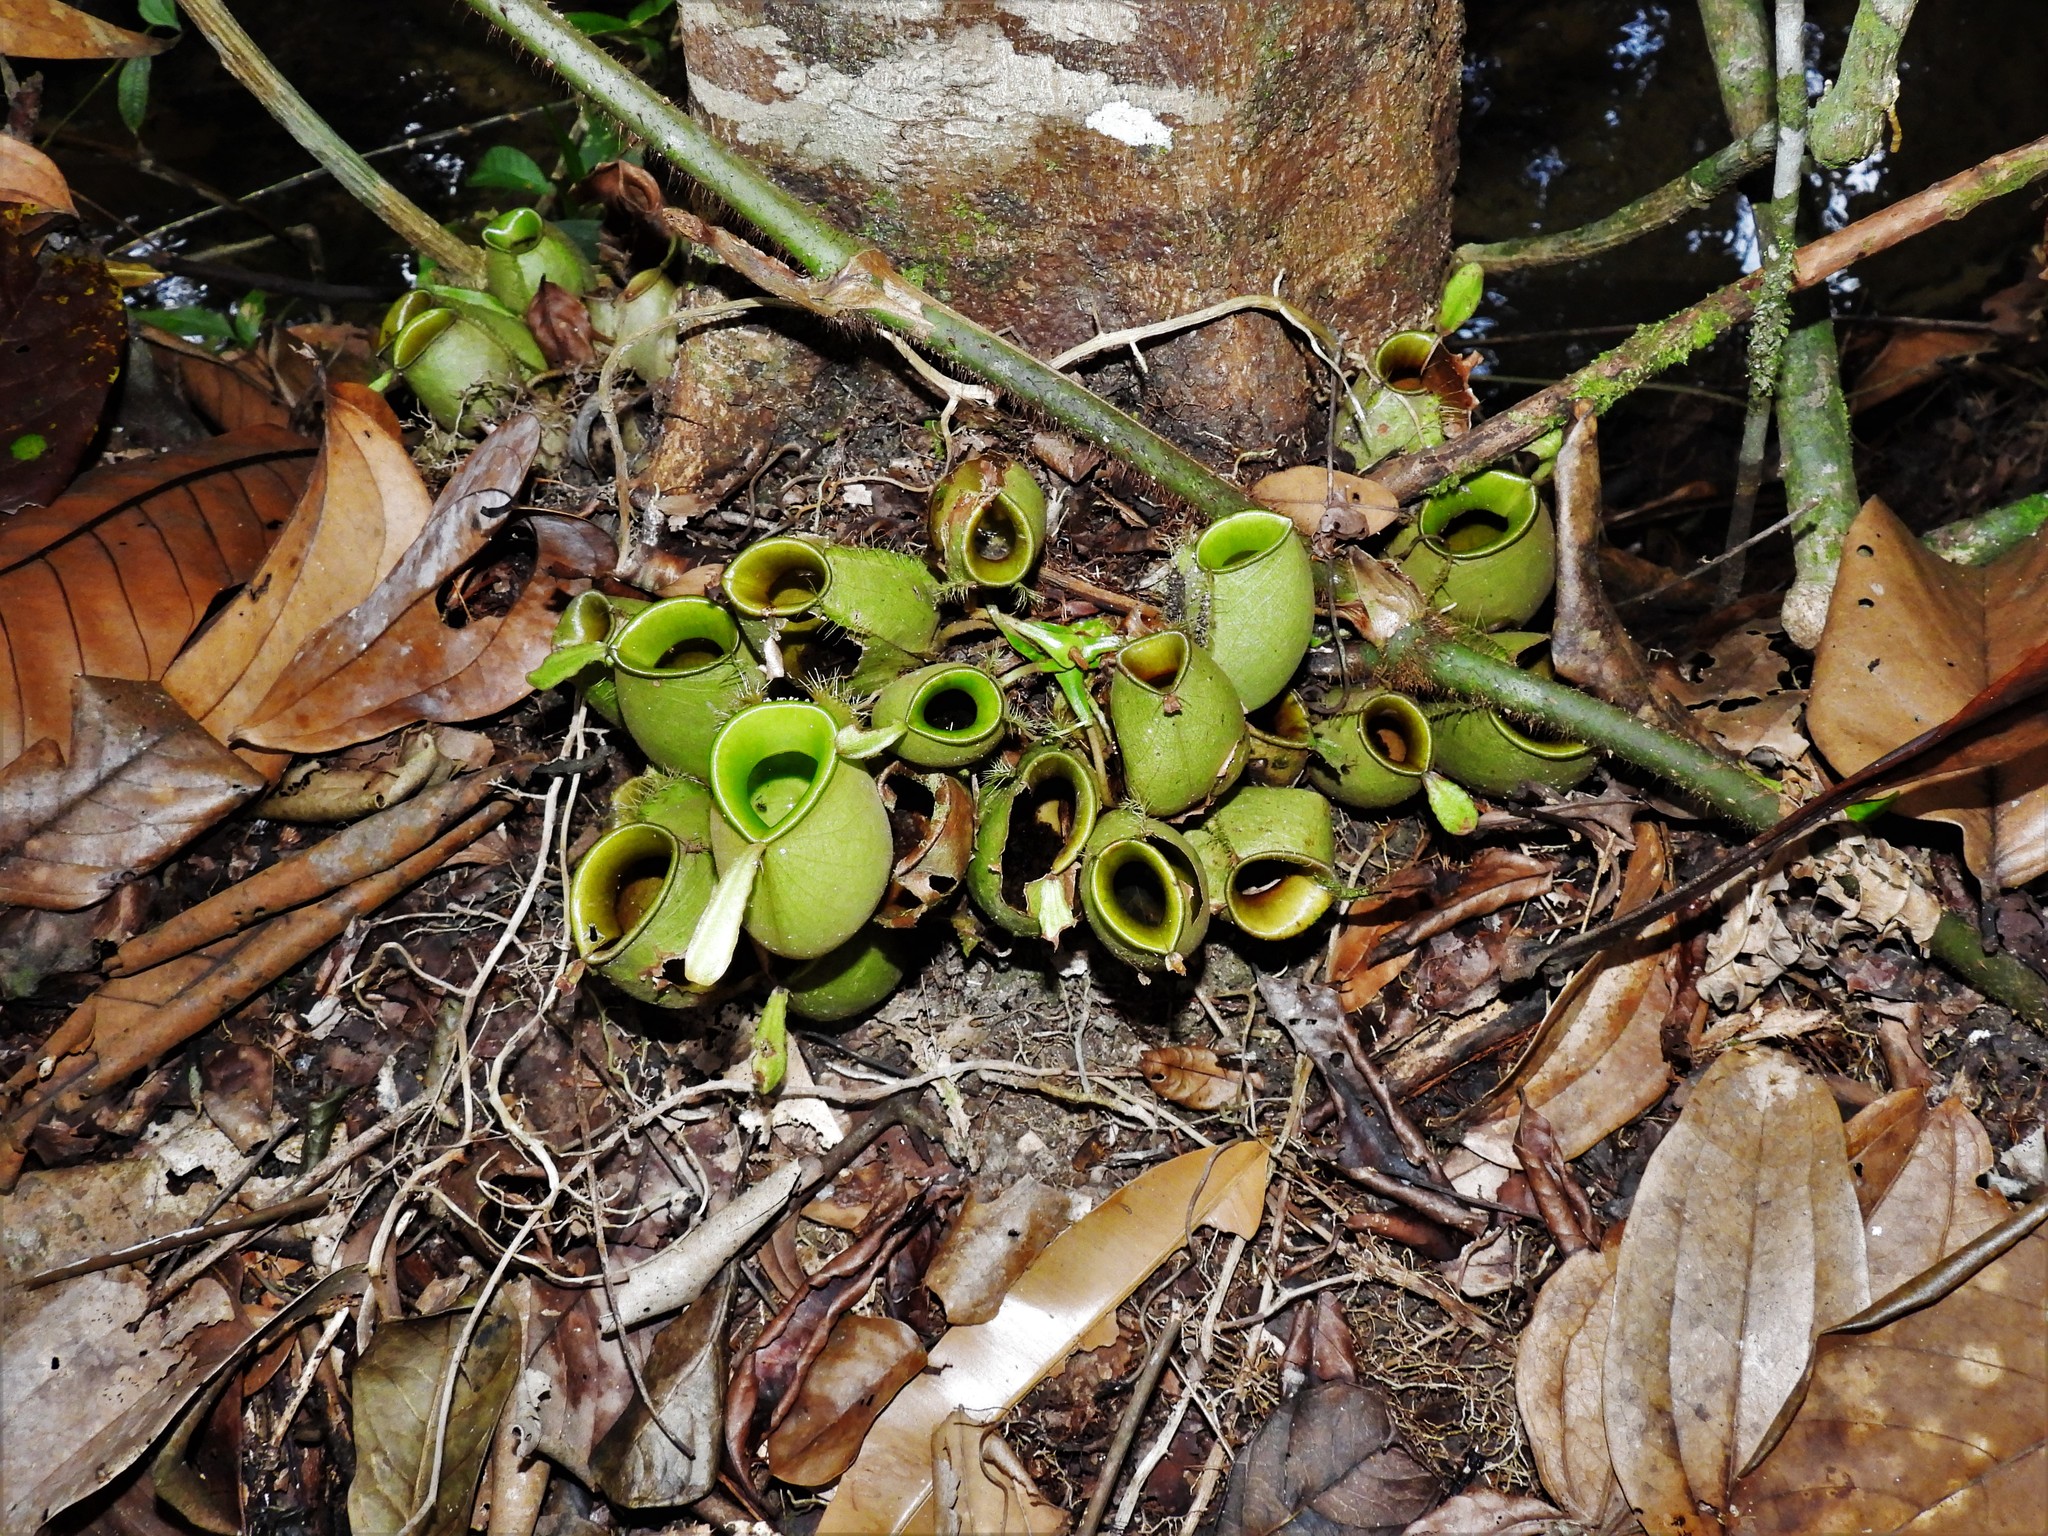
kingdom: Plantae
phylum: Tracheophyta
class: Magnoliopsida
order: Caryophyllales
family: Nepenthaceae
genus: Nepenthes
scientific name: Nepenthes ampullaria
